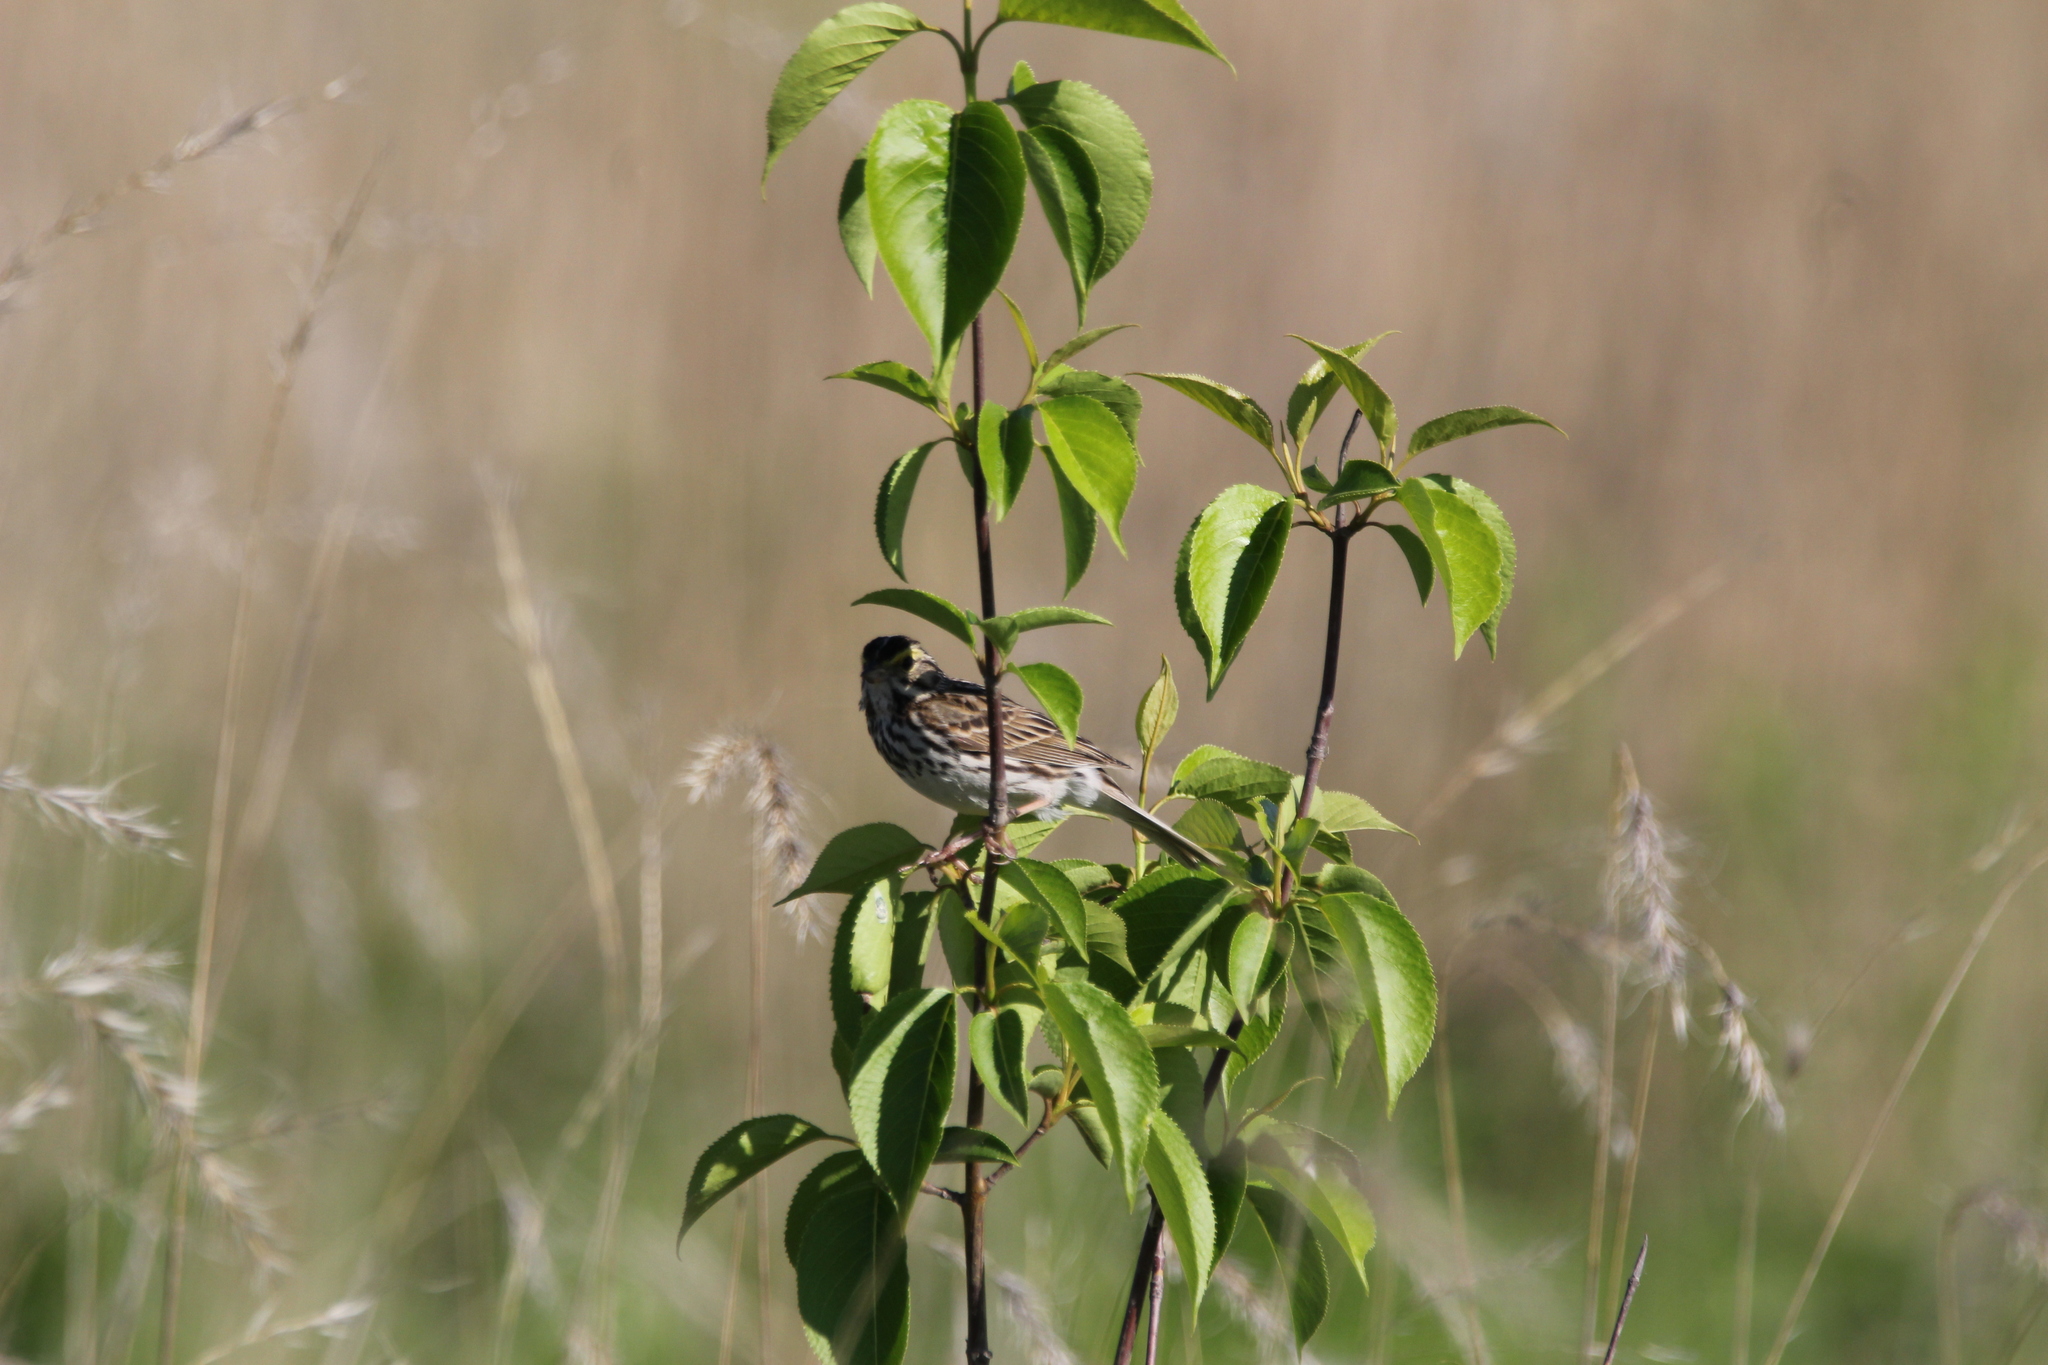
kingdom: Animalia
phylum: Chordata
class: Aves
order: Passeriformes
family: Passerellidae
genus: Passerculus
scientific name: Passerculus sandwichensis
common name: Savannah sparrow
